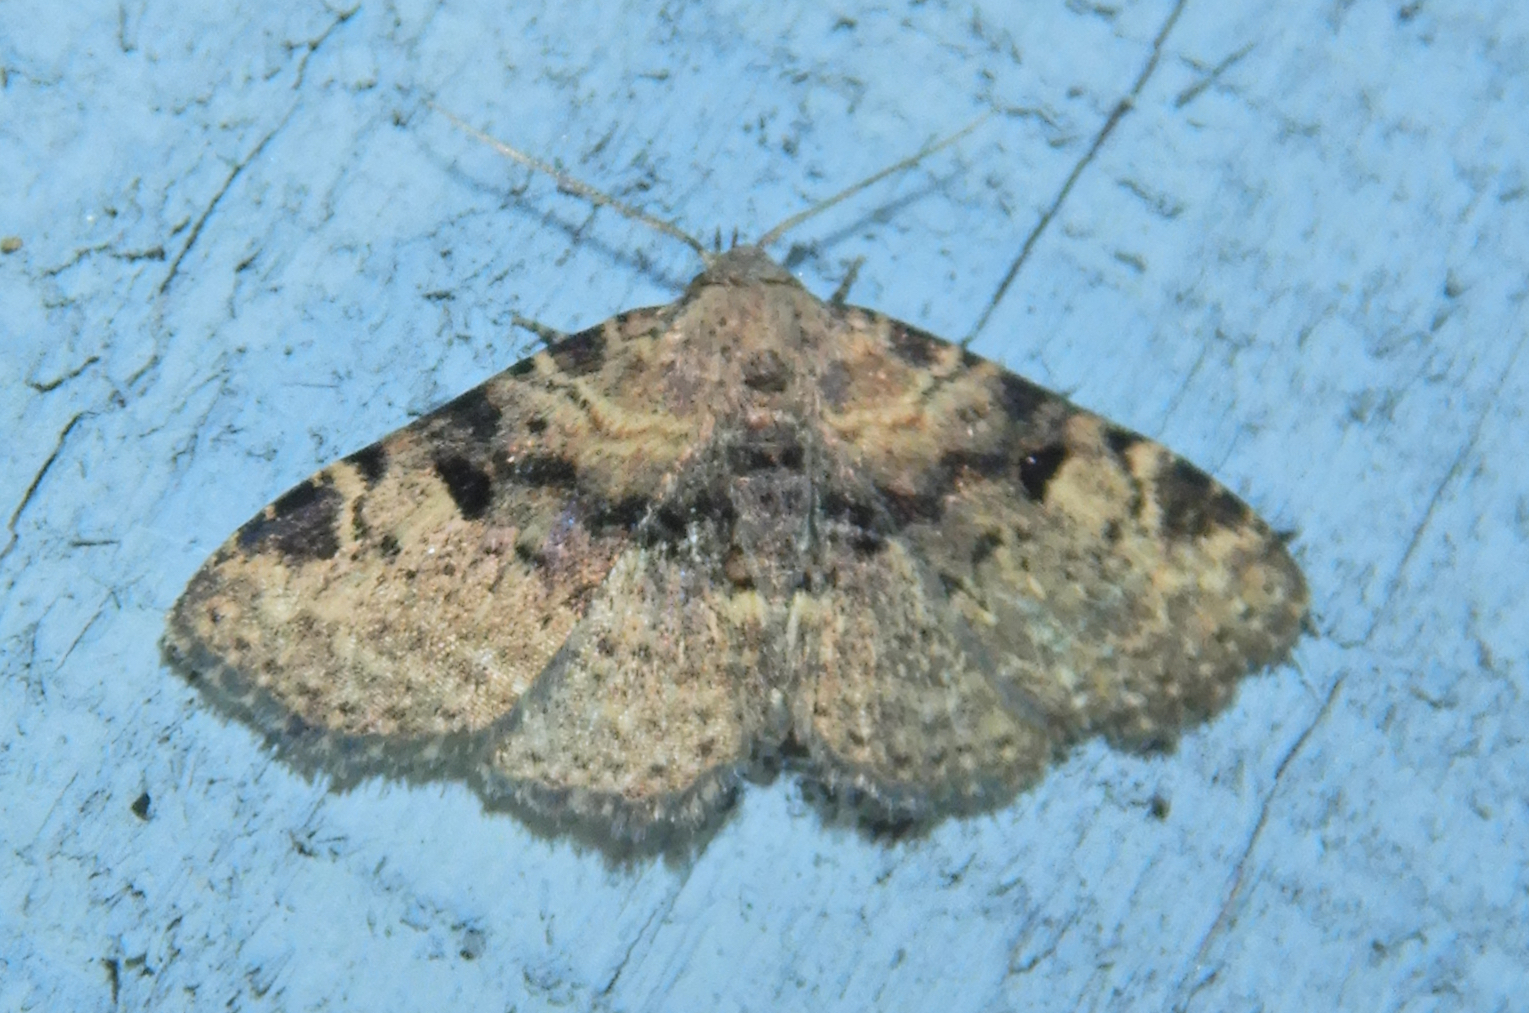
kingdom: Animalia
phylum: Arthropoda
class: Insecta
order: Lepidoptera
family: Erebidae
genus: Metalectra
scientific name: Metalectra quadrisignata
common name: Four-spotted fungus moth
